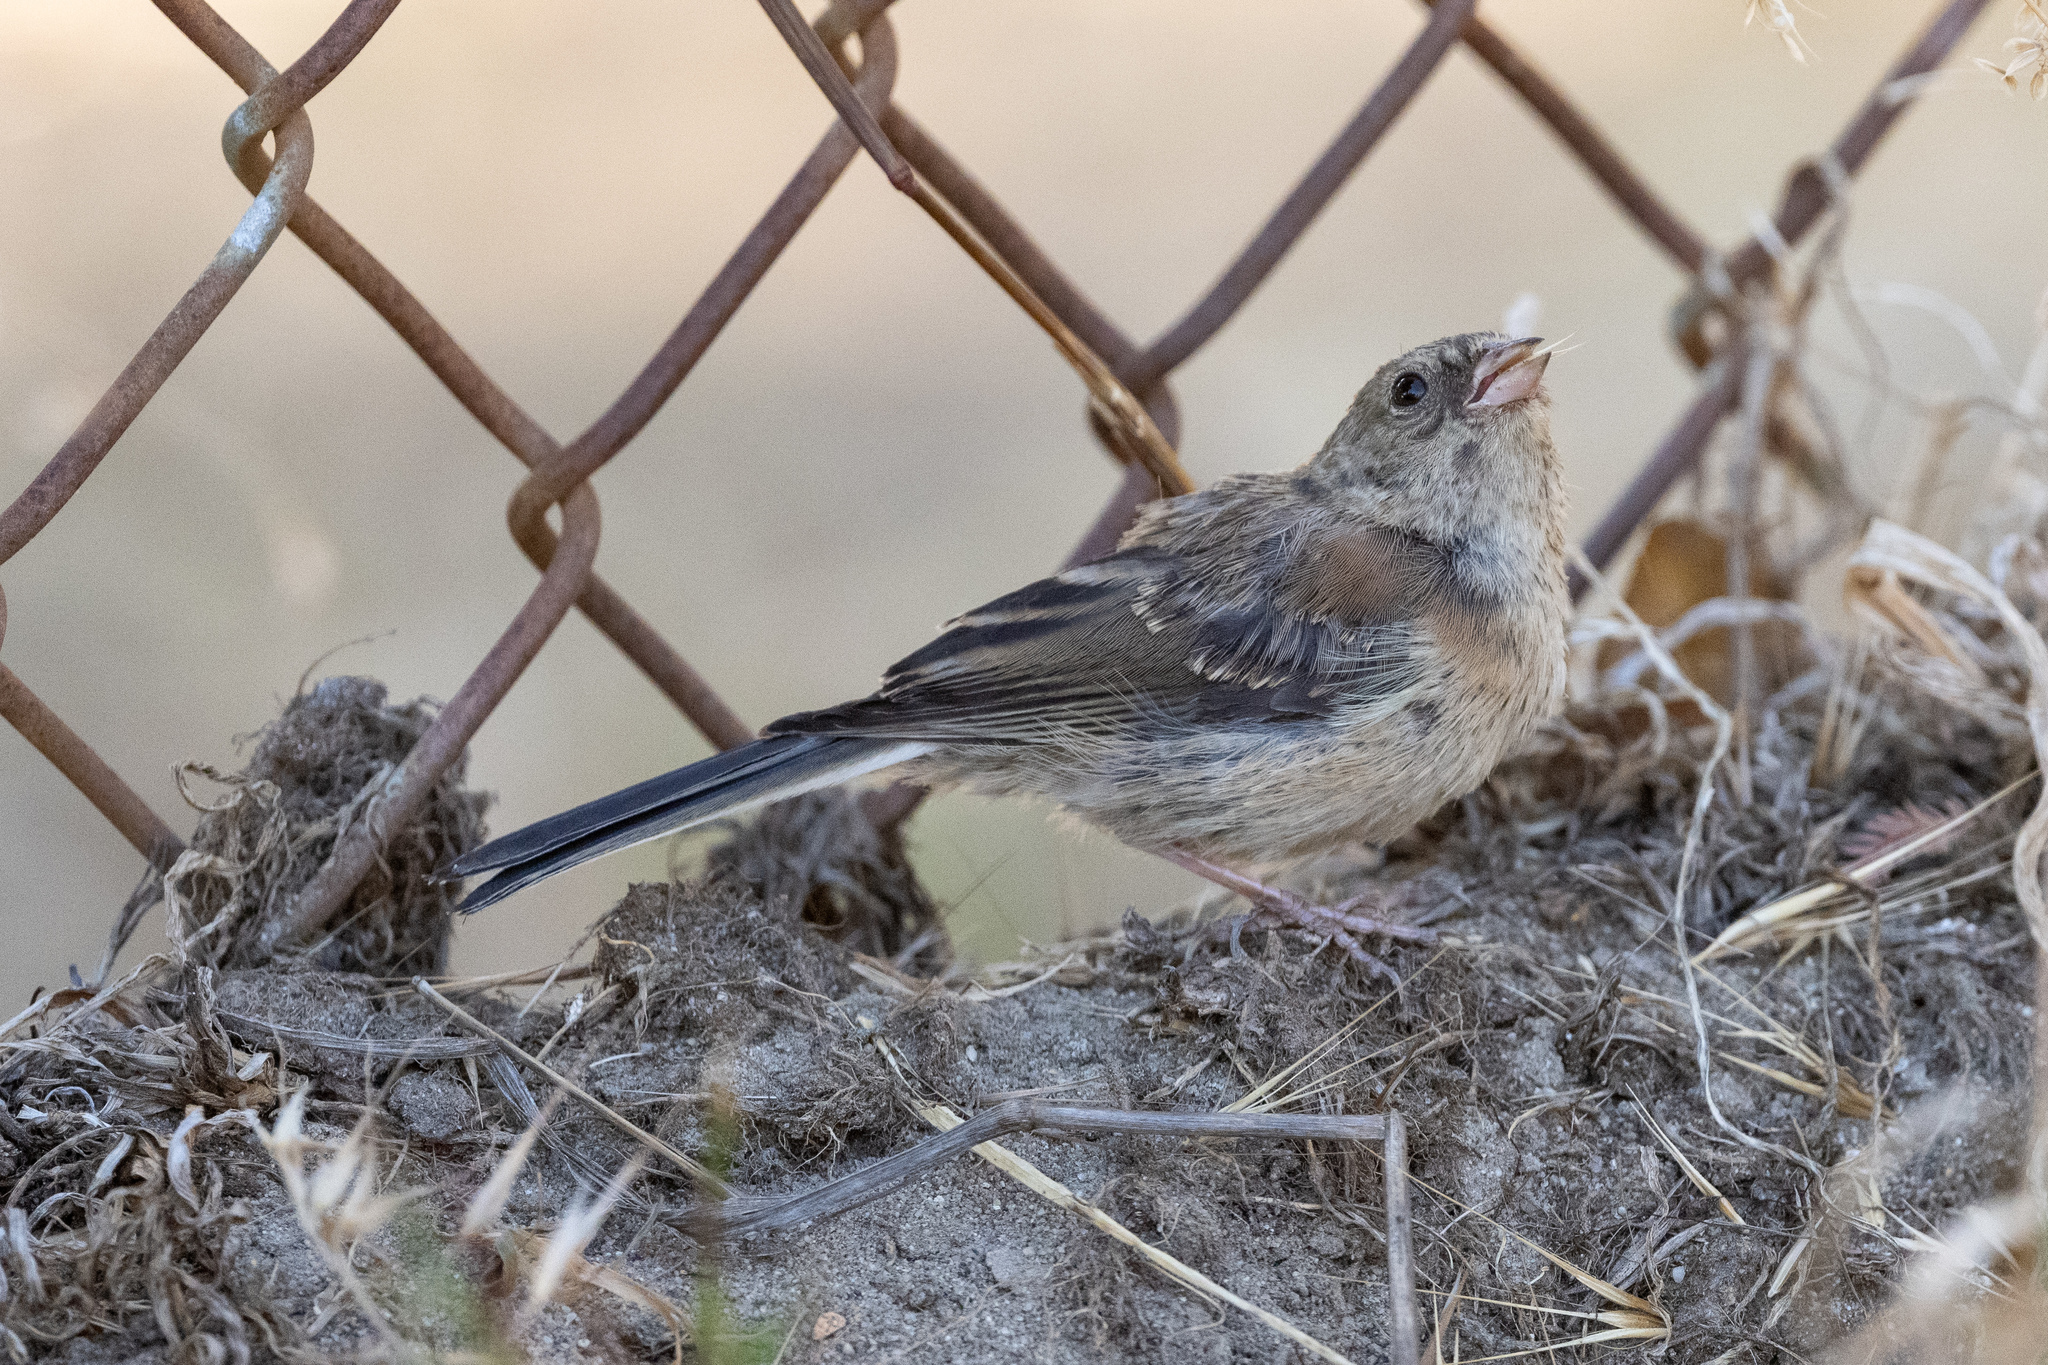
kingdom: Animalia
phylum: Chordata
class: Aves
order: Passeriformes
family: Passerellidae
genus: Junco
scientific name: Junco hyemalis
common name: Dark-eyed junco
